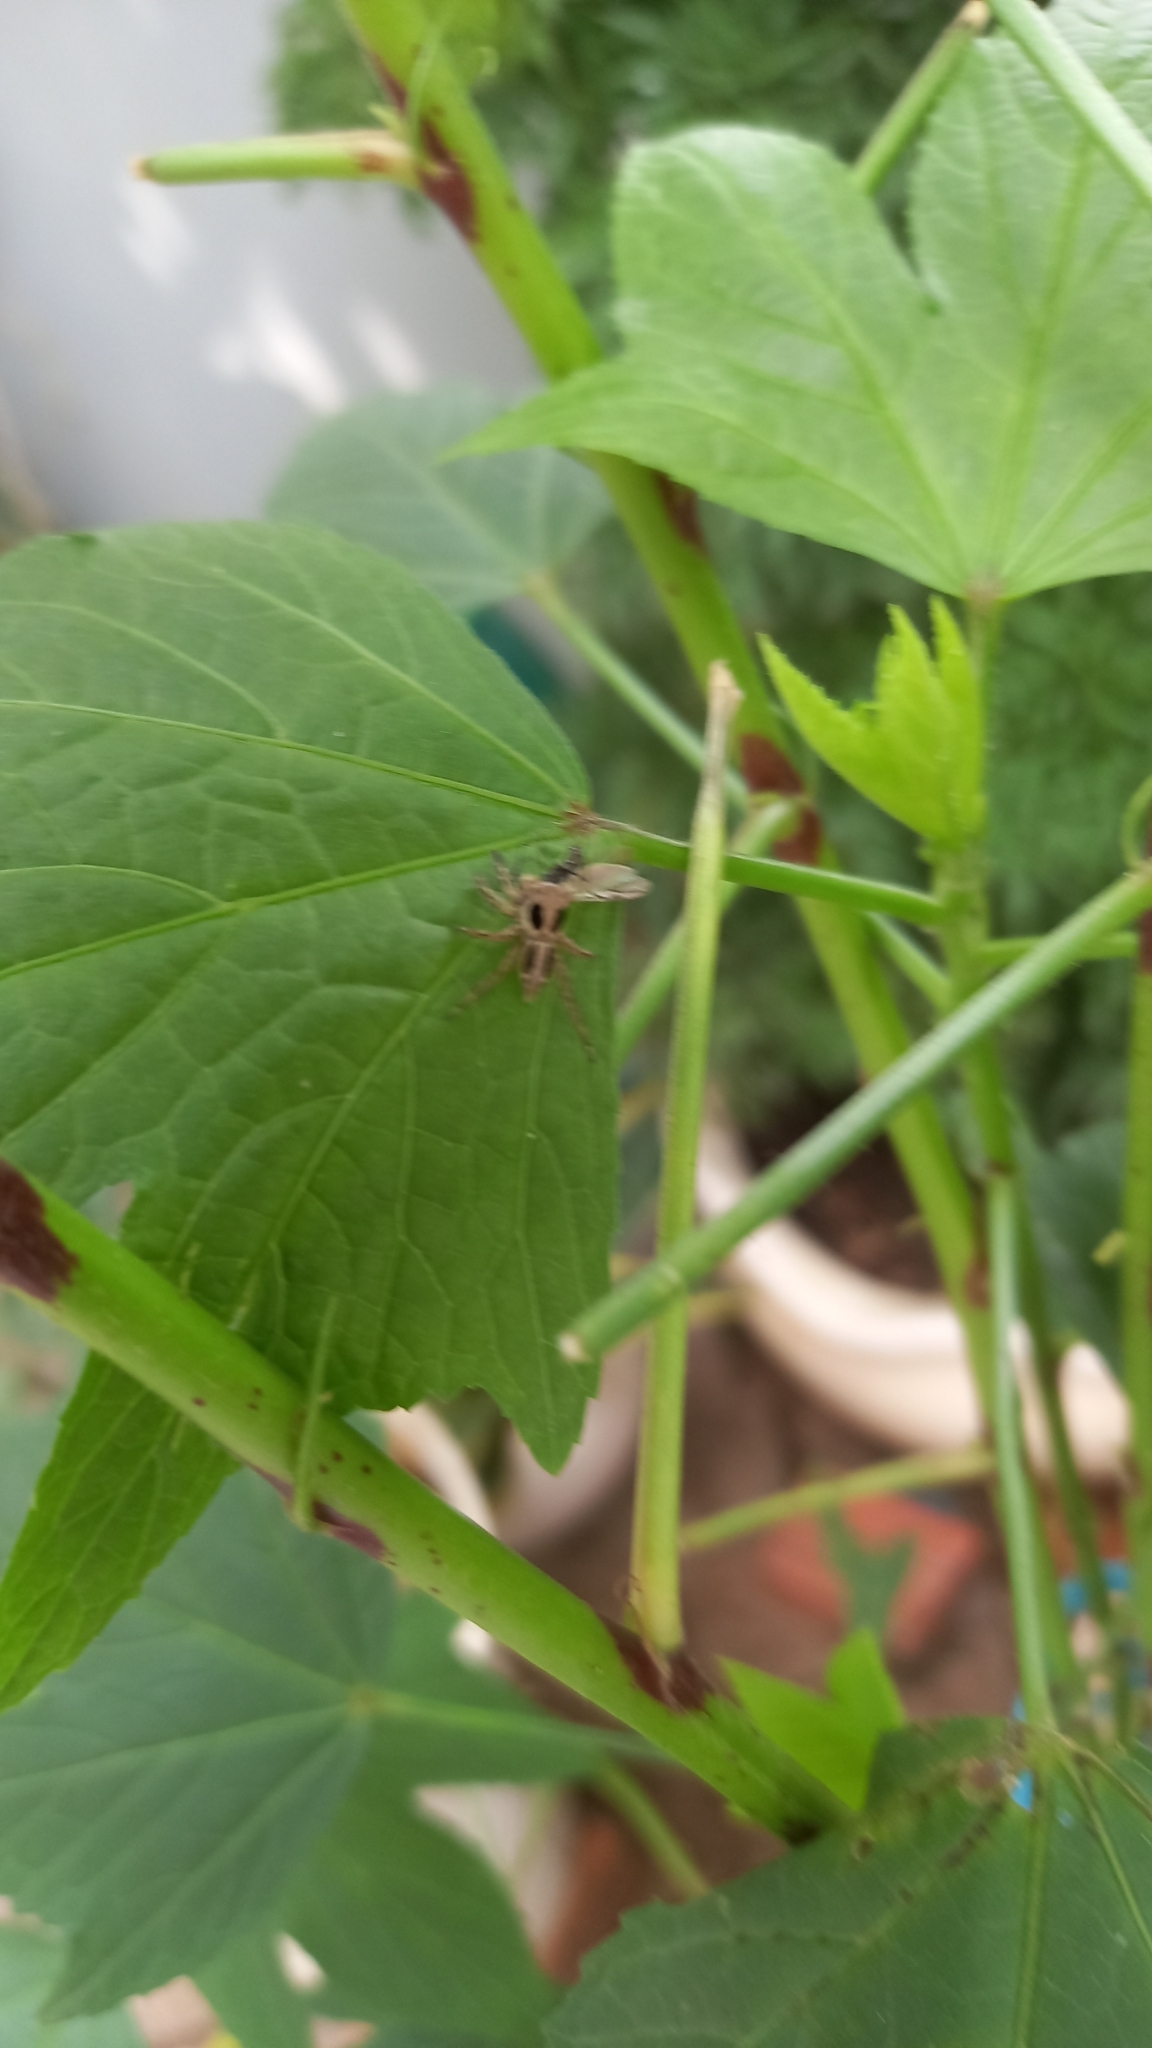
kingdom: Animalia
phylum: Arthropoda
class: Arachnida
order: Araneae
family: Salticidae
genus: Plexippus
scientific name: Plexippus petersi
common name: Jumping spider
